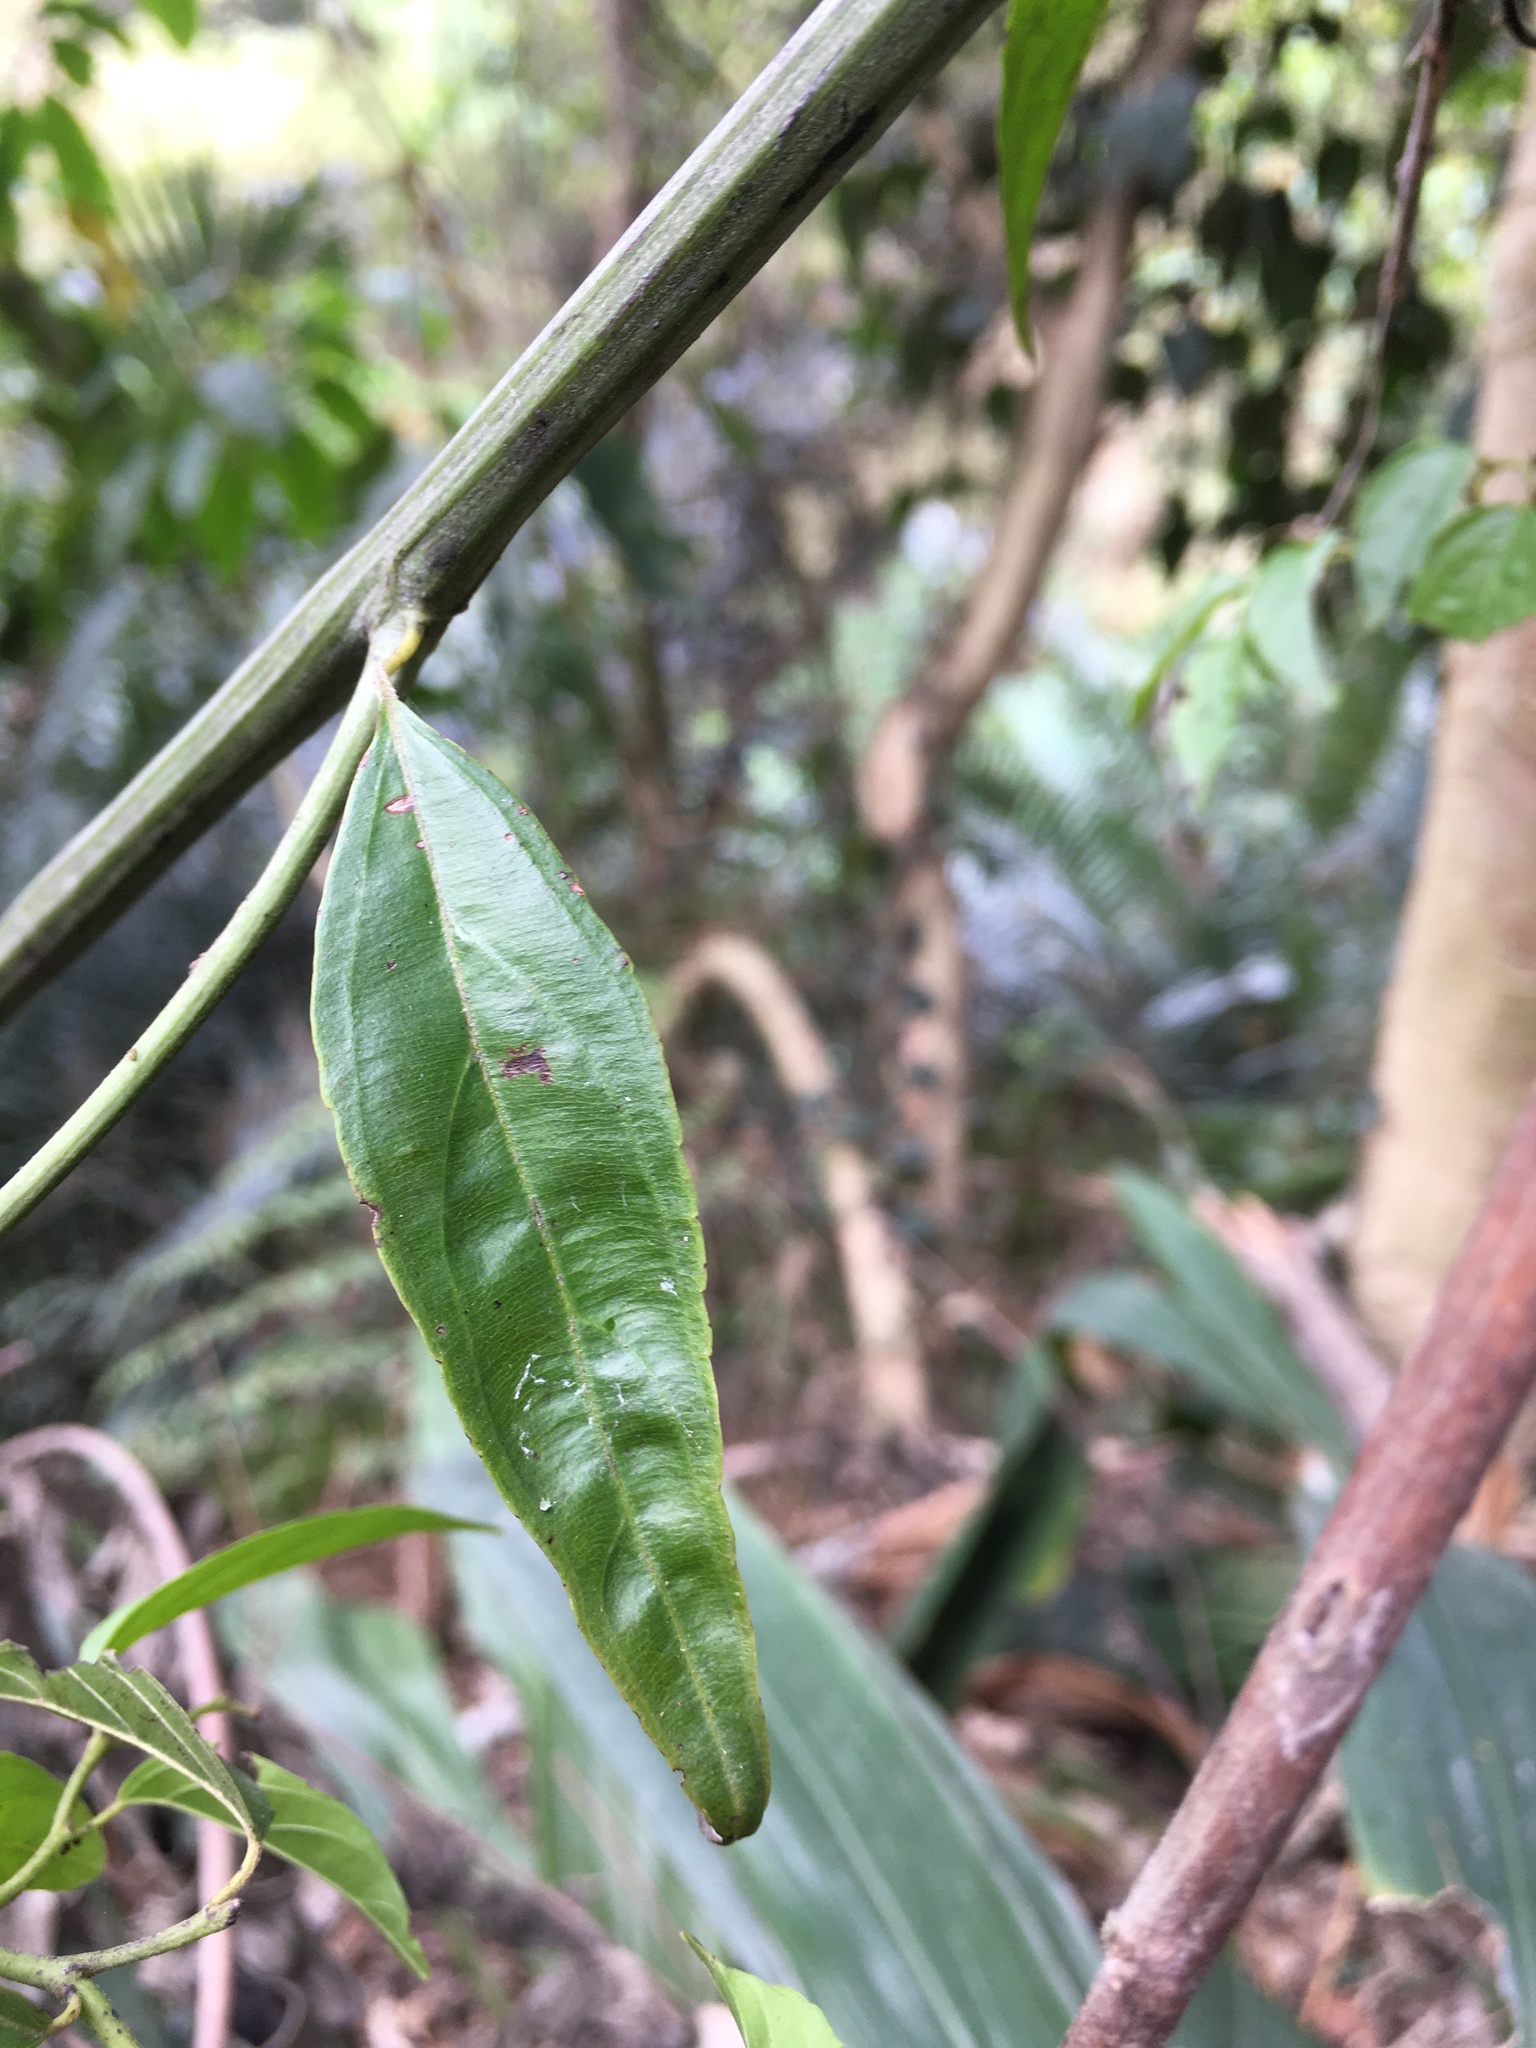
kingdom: Plantae
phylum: Tracheophyta
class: Magnoliopsida
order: Rosales
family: Rhamnaceae
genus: Ventilago
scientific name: Ventilago leiocarpa
